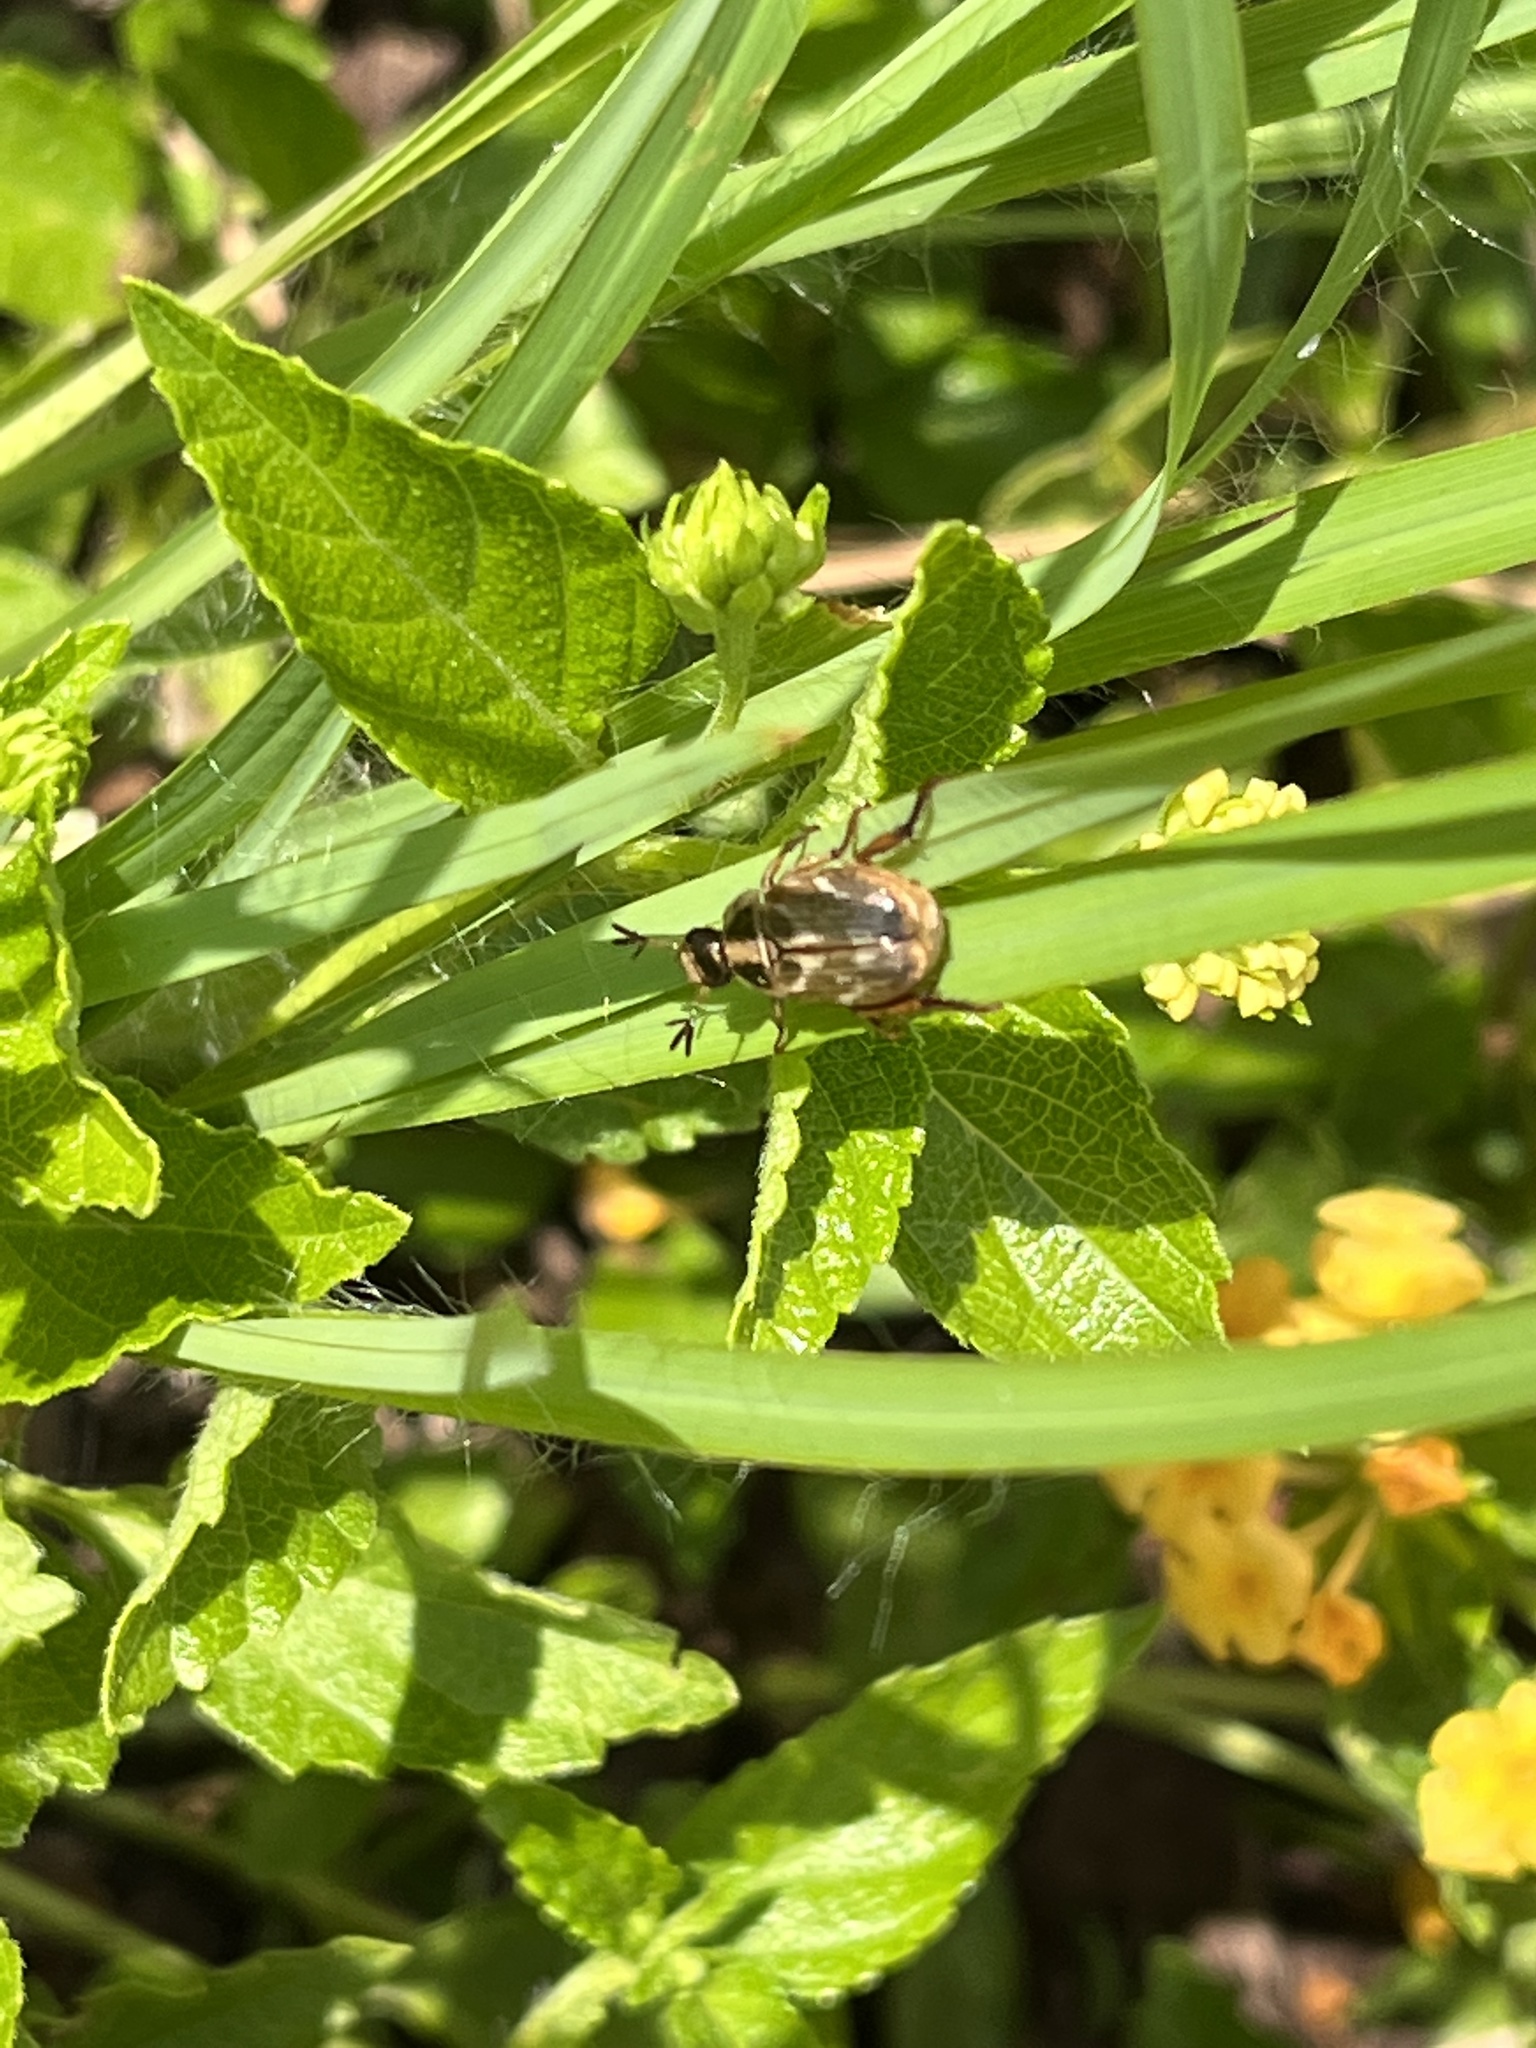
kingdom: Animalia
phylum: Arthropoda
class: Insecta
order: Coleoptera
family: Scarabaeidae
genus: Exomala
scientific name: Exomala orientalis
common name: Oriental beetle
